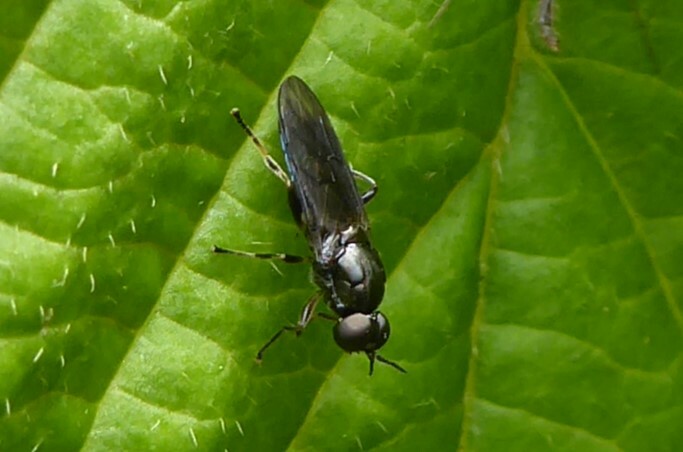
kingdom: Animalia
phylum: Arthropoda
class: Insecta
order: Diptera
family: Stratiomyidae
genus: Zealandoberis
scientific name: Zealandoberis violacea
